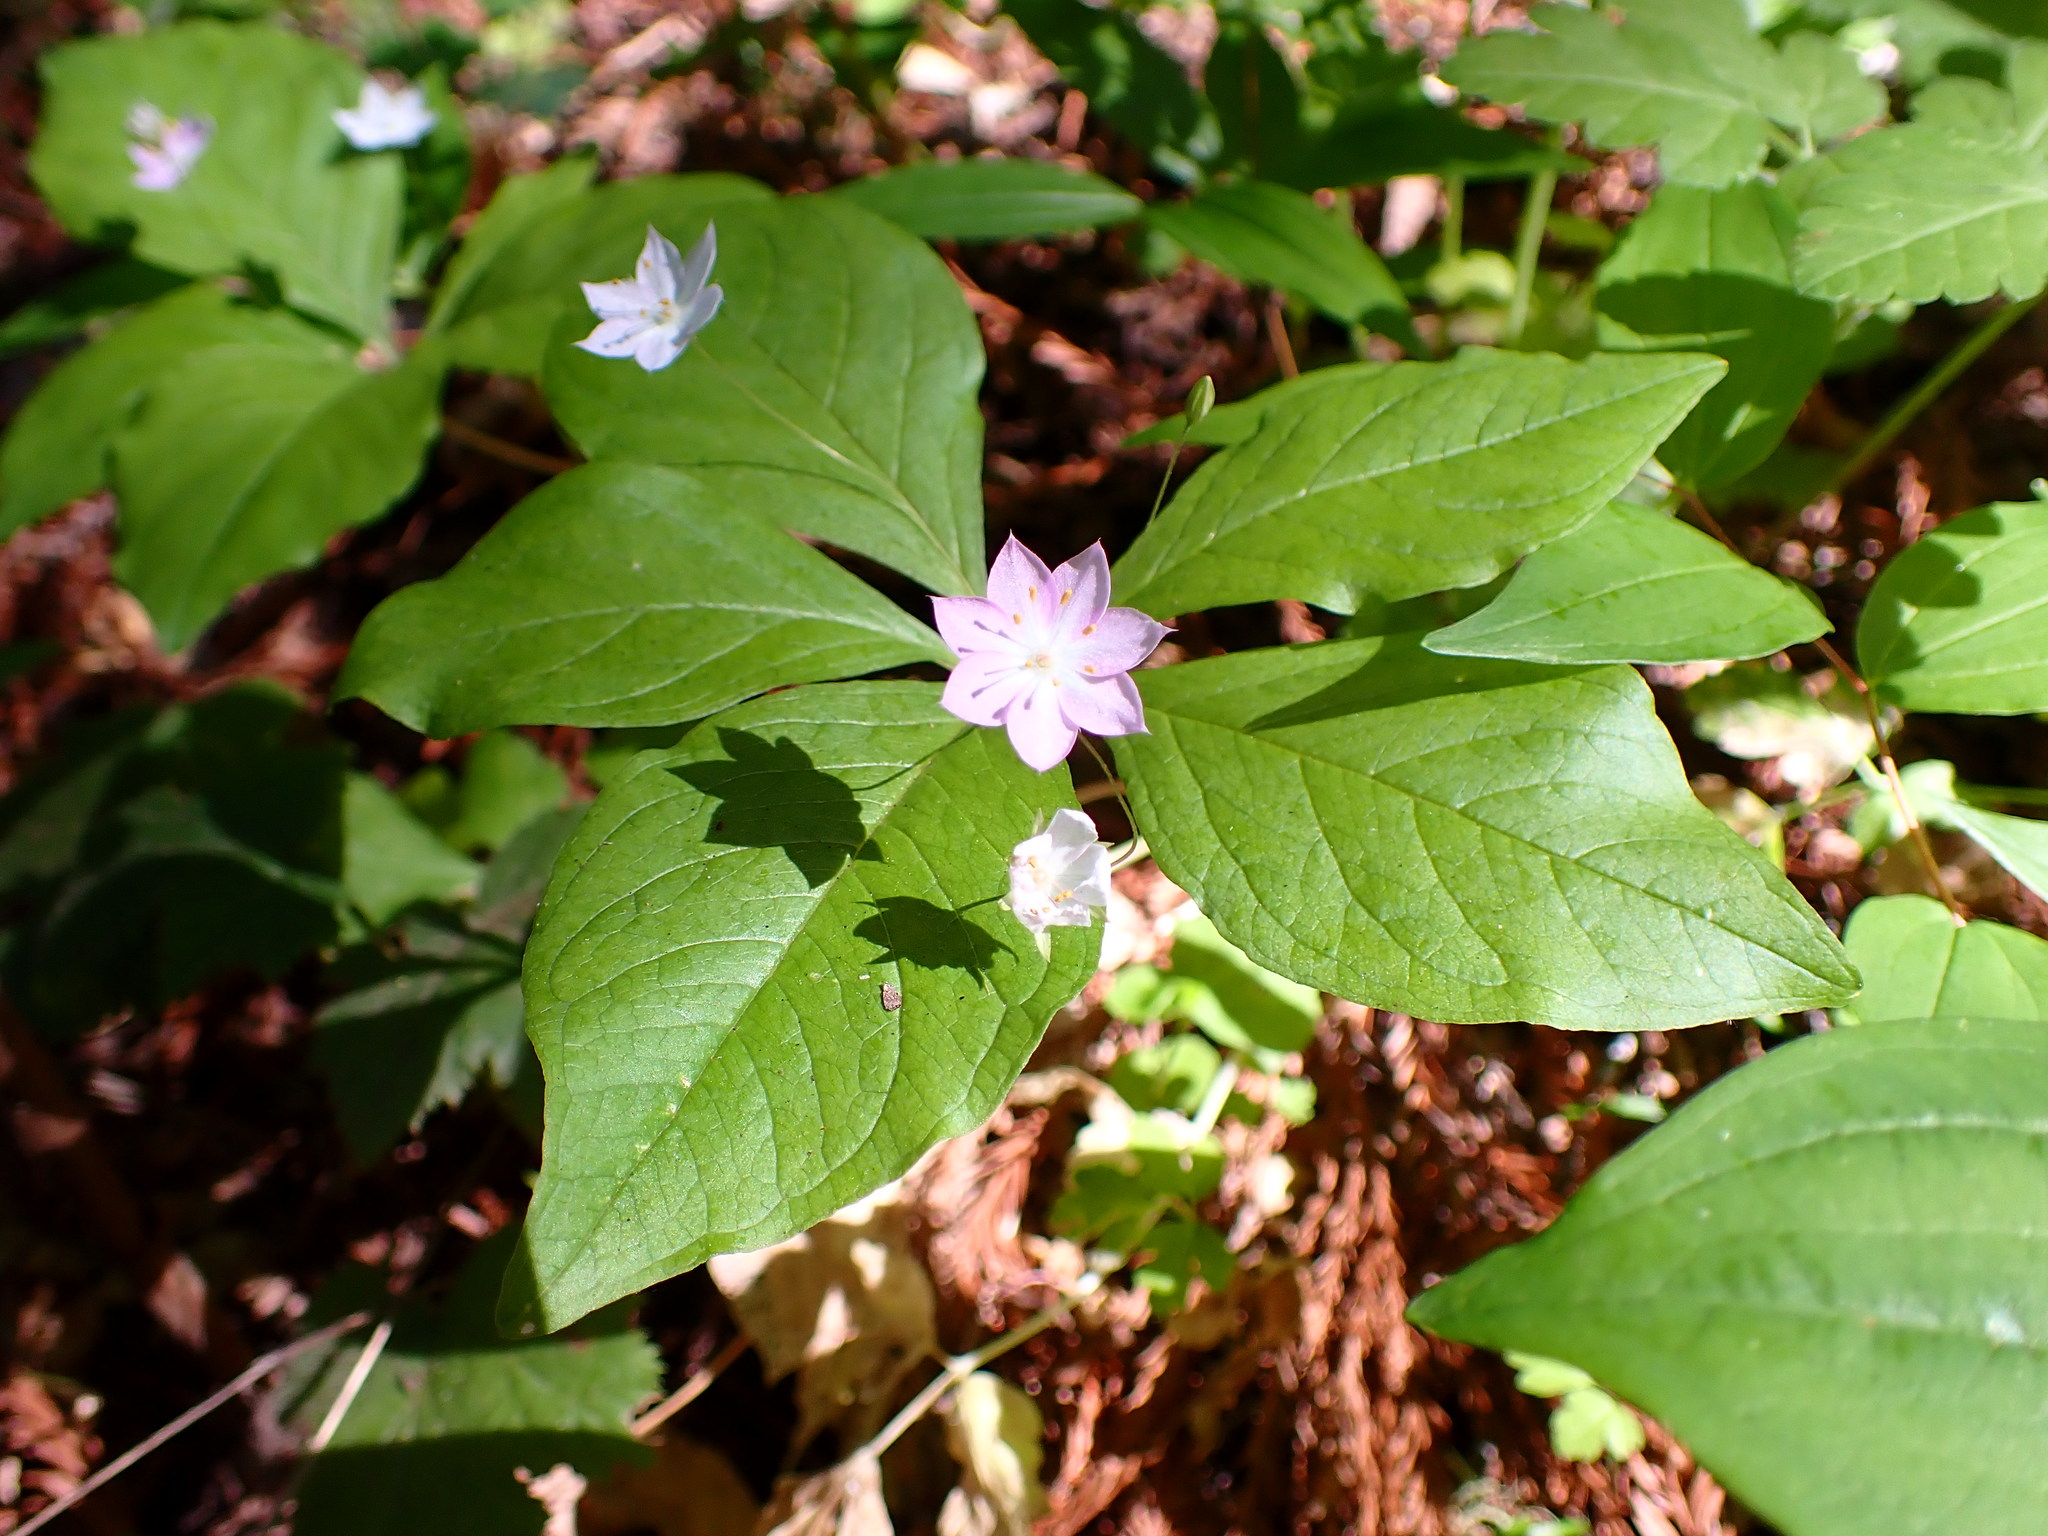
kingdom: Plantae
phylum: Tracheophyta
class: Magnoliopsida
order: Ericales
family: Primulaceae
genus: Lysimachia
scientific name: Lysimachia latifolia
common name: Pacific starflower
